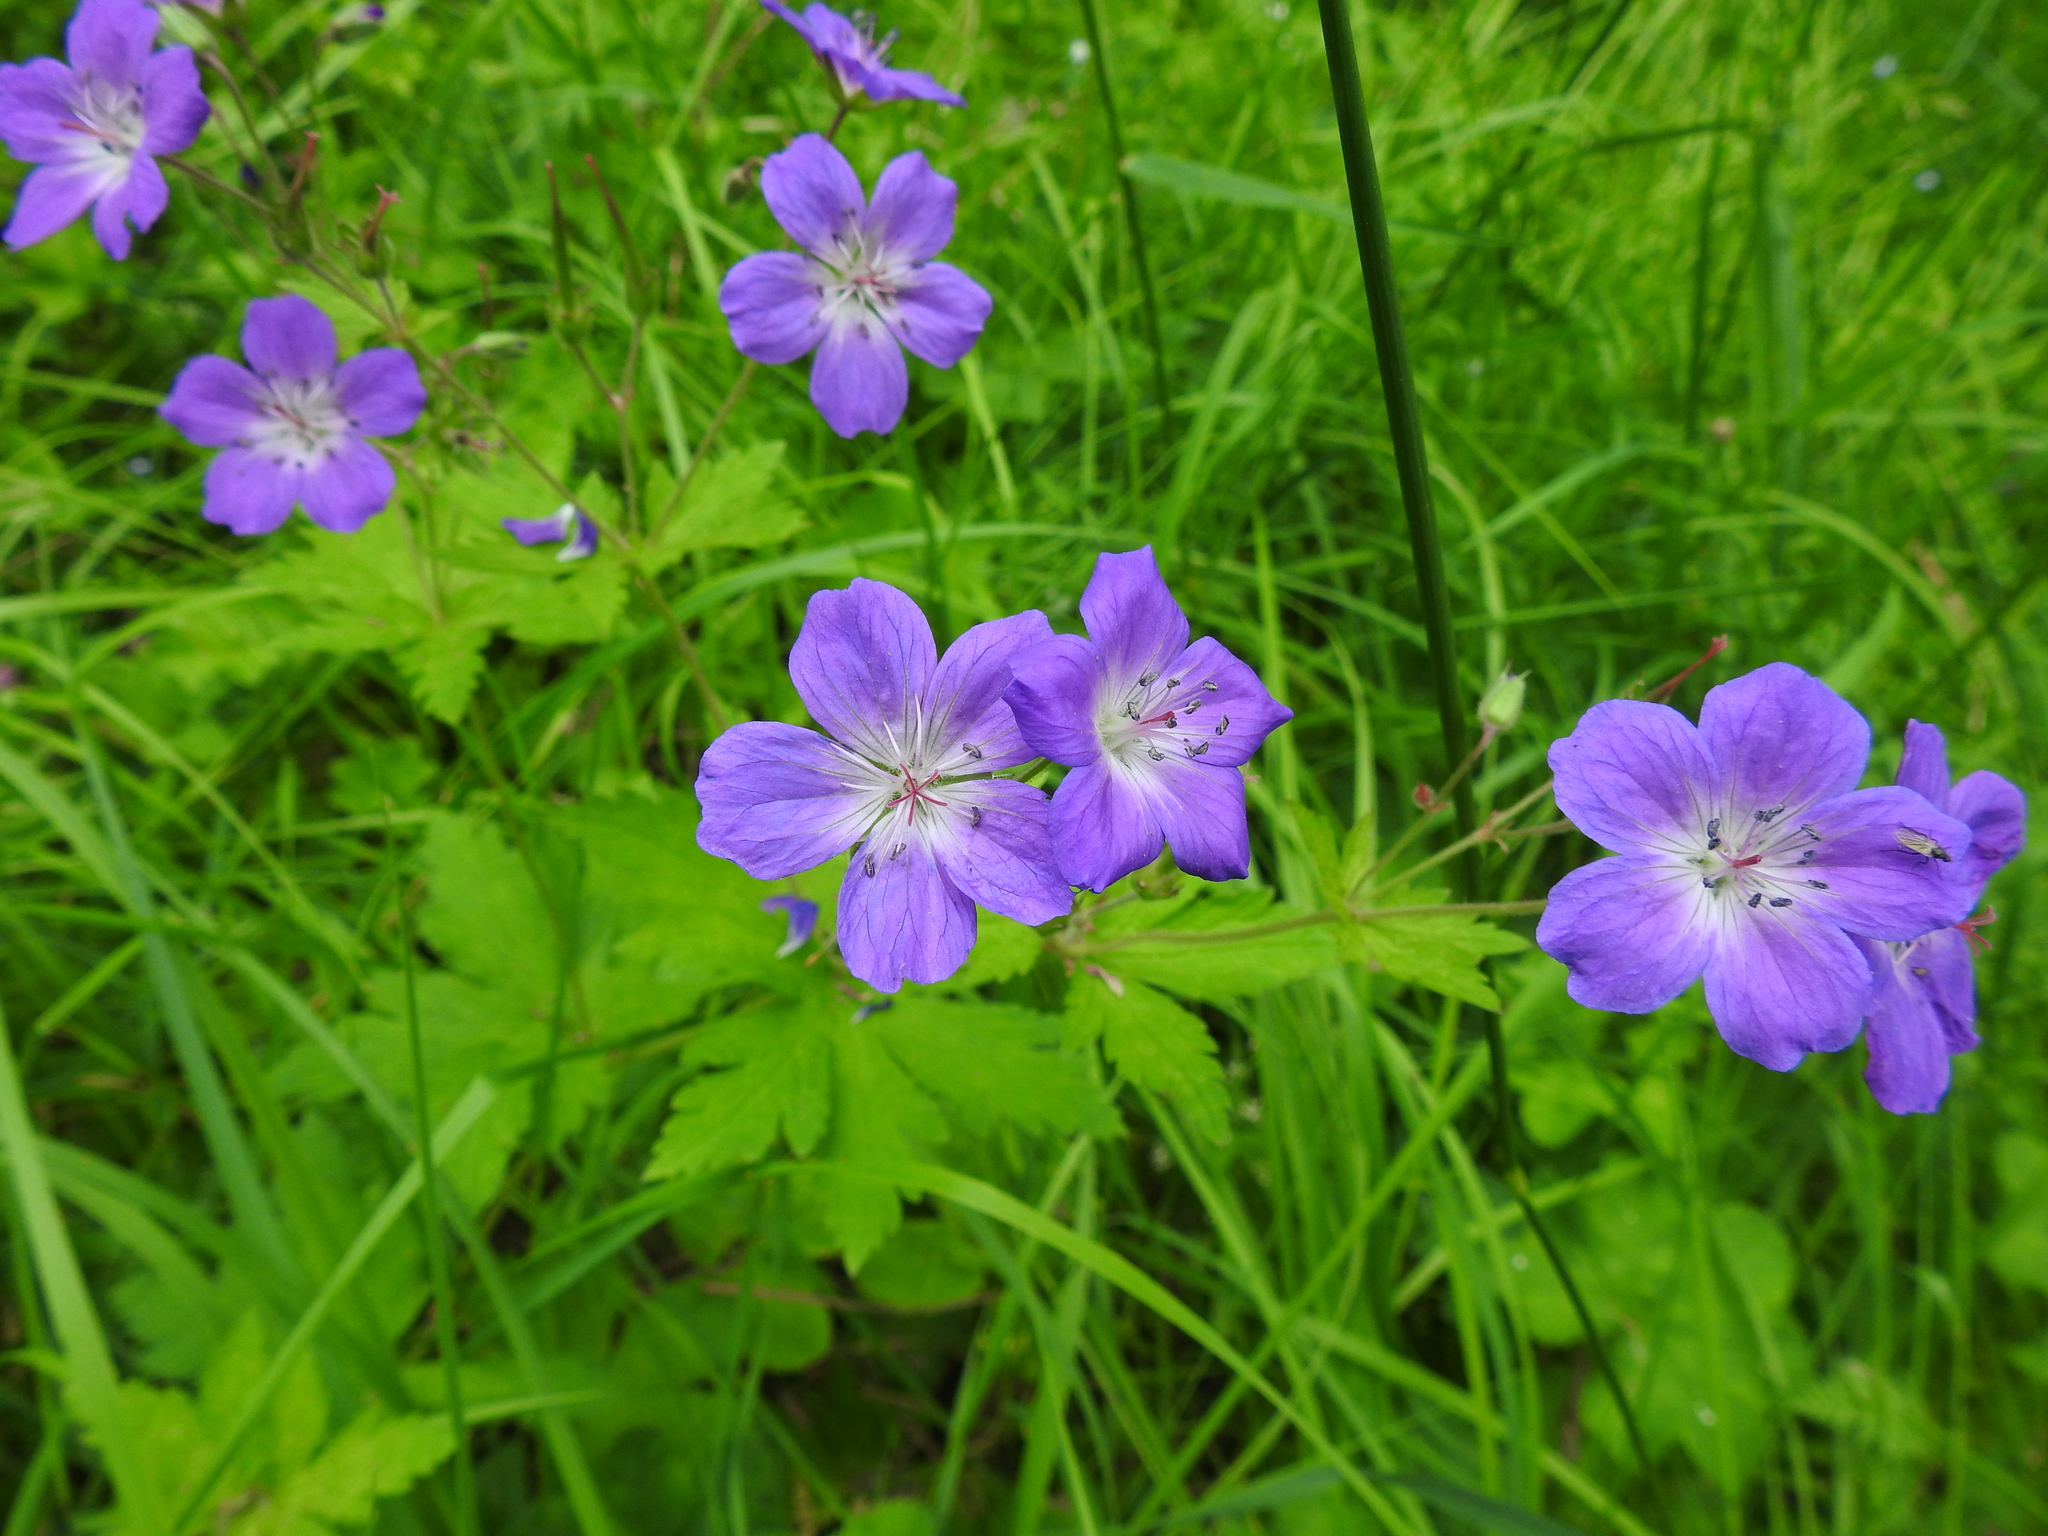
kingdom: Plantae
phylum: Tracheophyta
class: Magnoliopsida
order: Geraniales
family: Geraniaceae
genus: Geranium
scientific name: Geranium sylvaticum
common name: Wood crane's-bill
